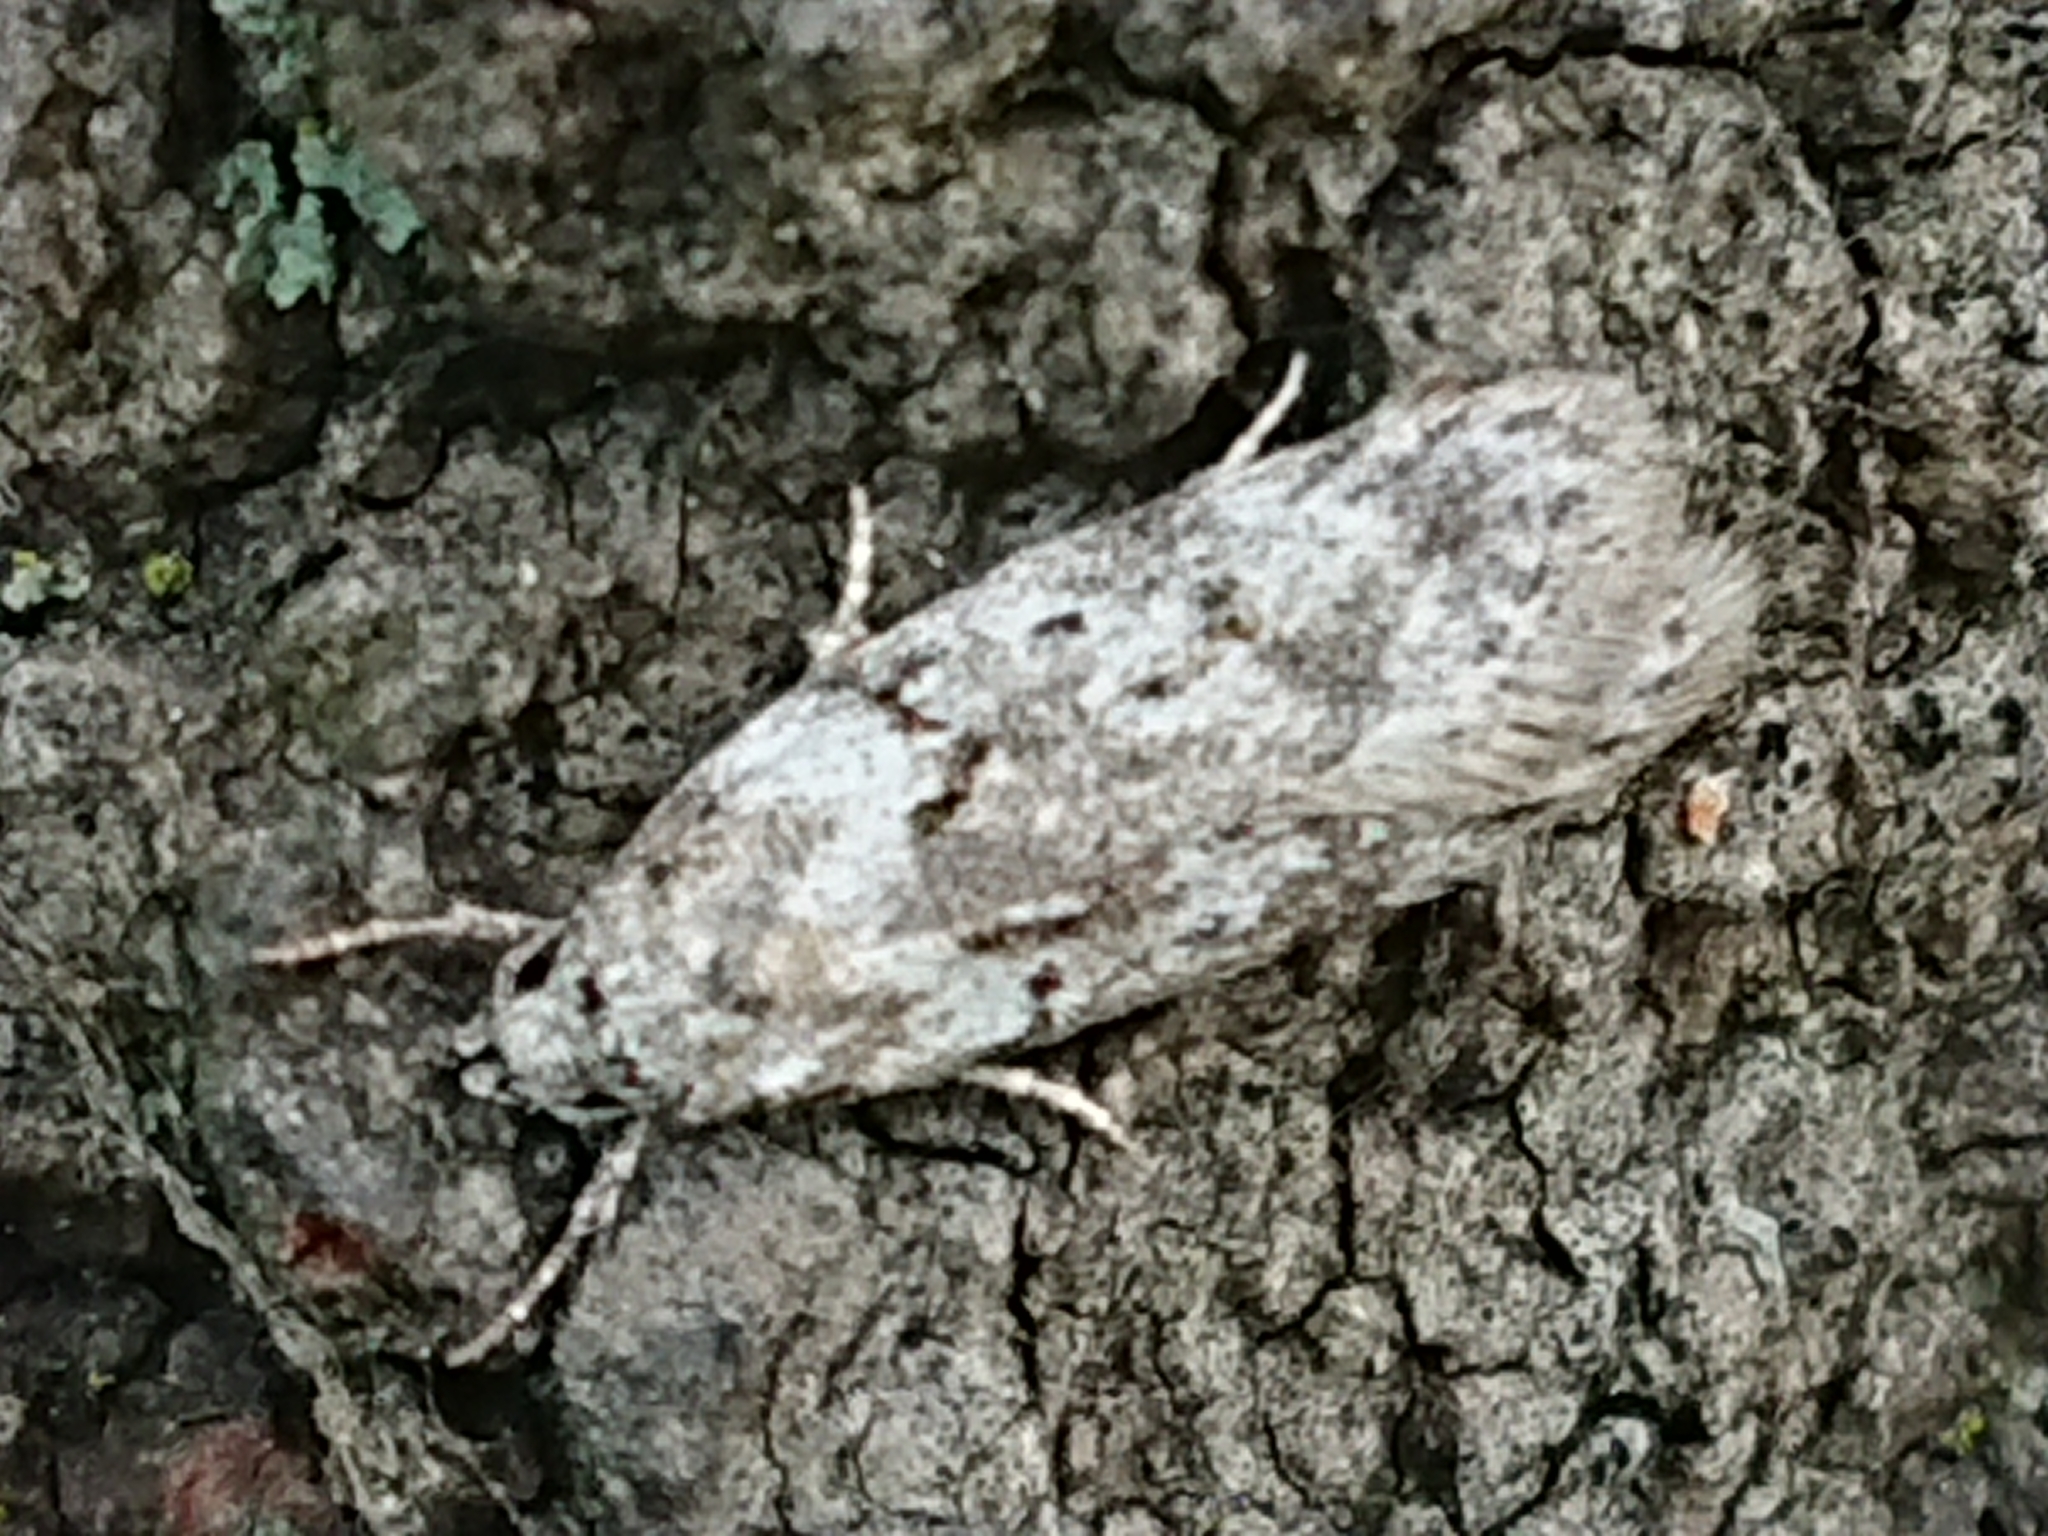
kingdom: Animalia
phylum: Arthropoda
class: Insecta
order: Lepidoptera
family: Oecophoridae
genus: Izatha
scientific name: Izatha convulsella
